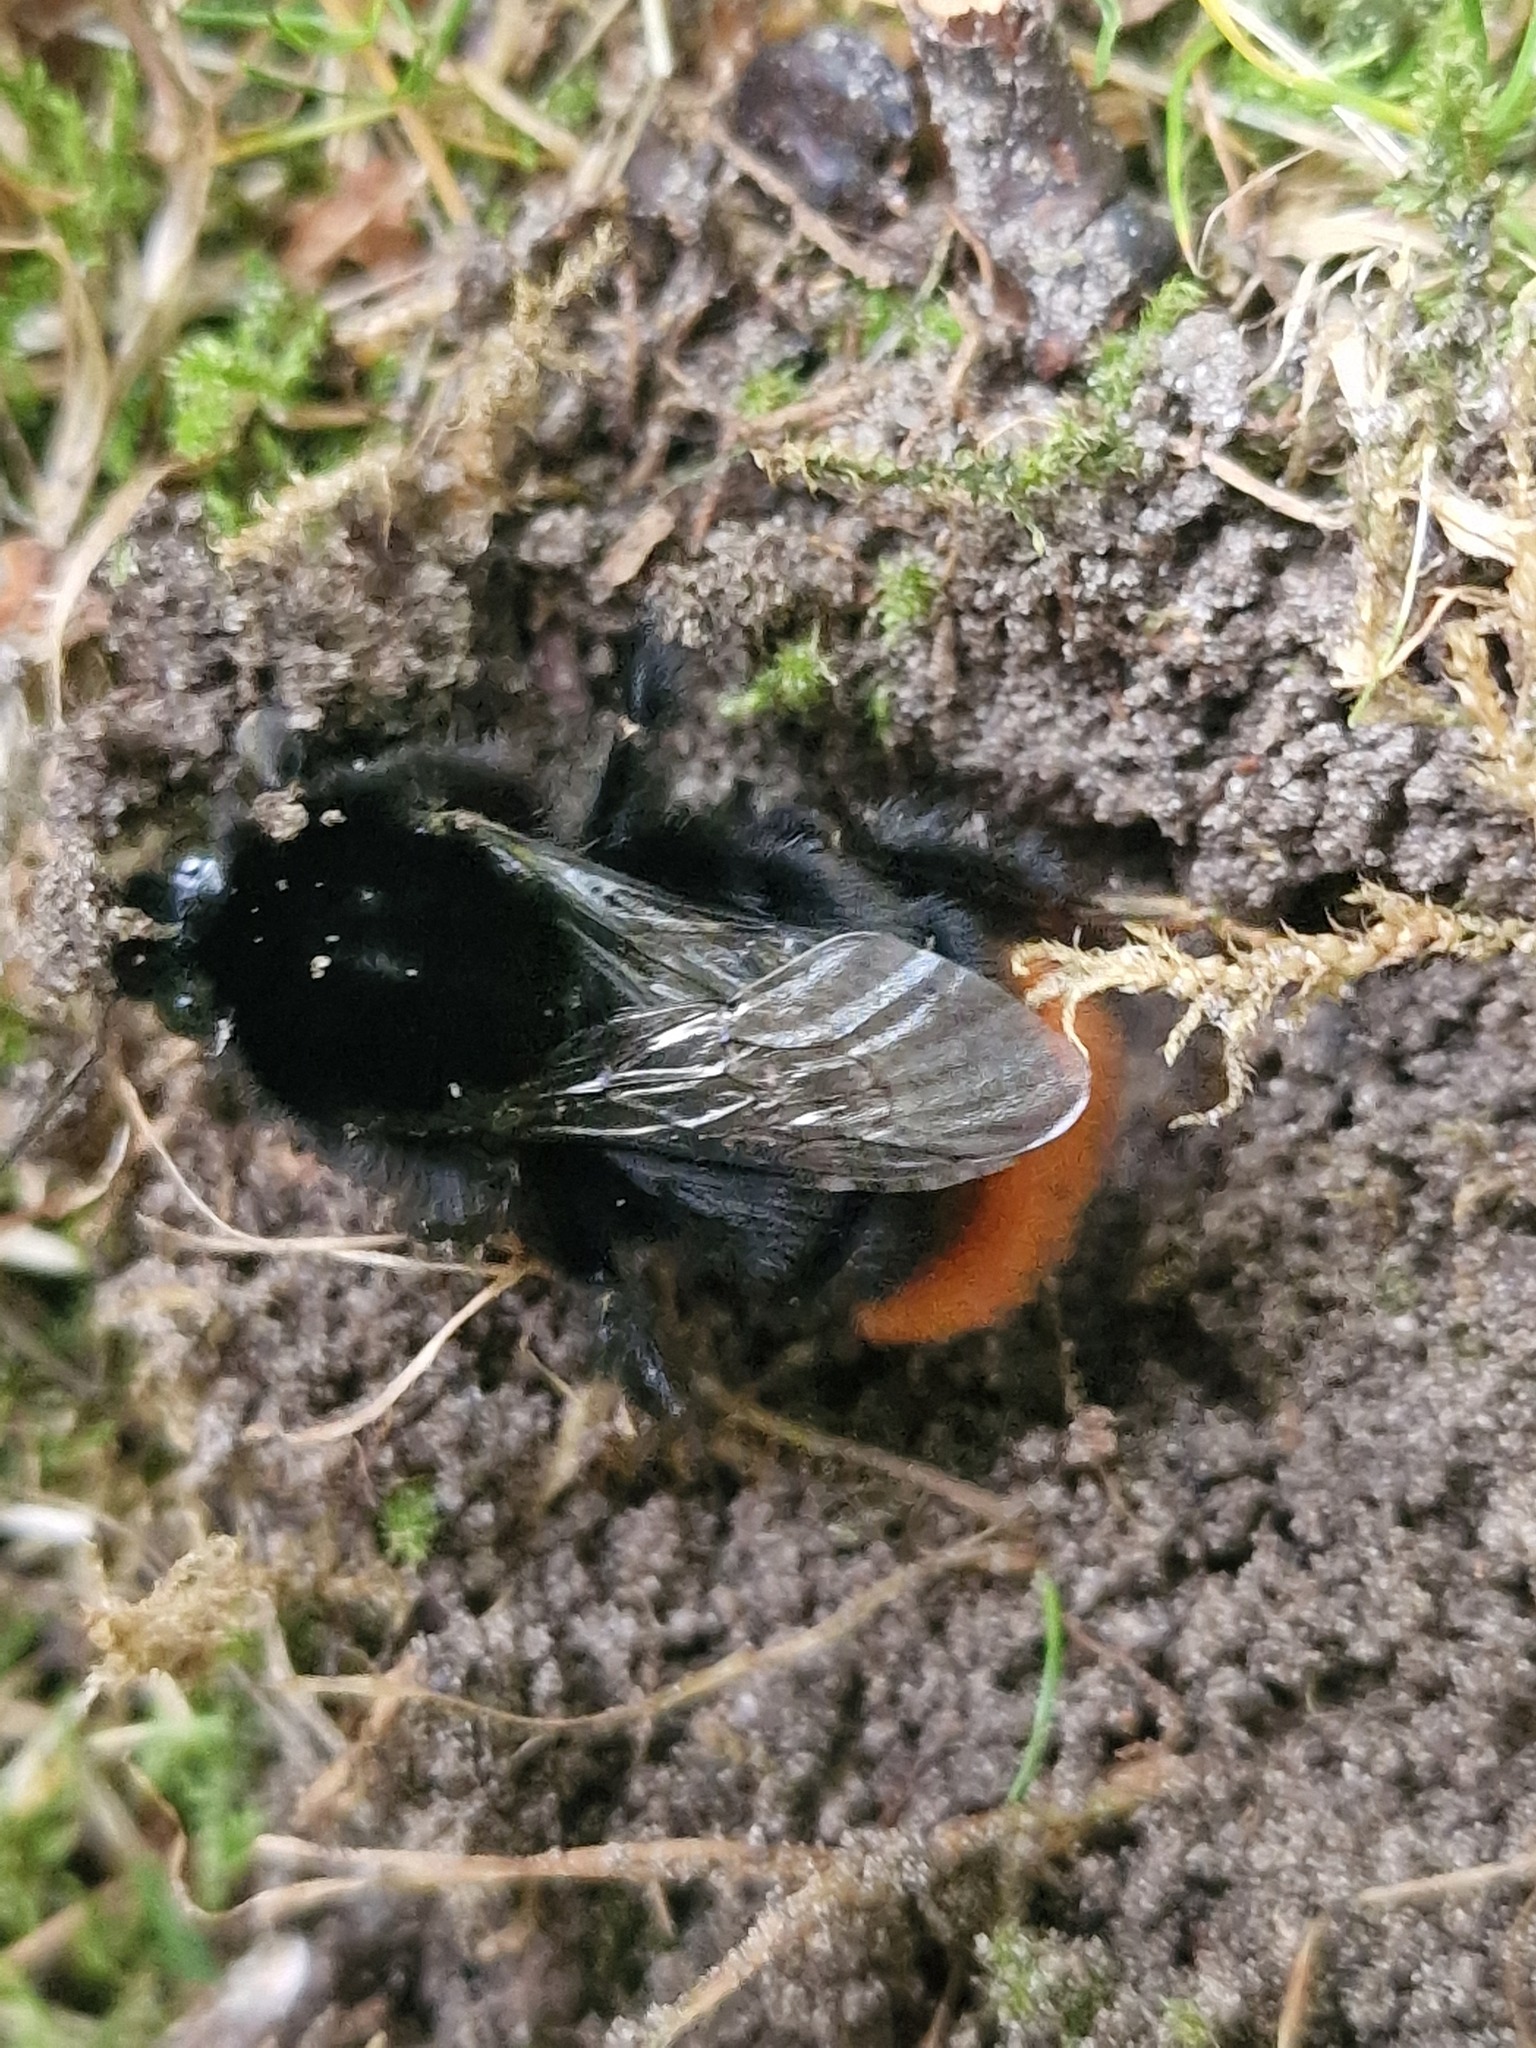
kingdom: Animalia
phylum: Arthropoda
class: Insecta
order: Hymenoptera
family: Apidae
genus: Bombus
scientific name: Bombus lapidarius
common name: Large red-tailed humble-bee
